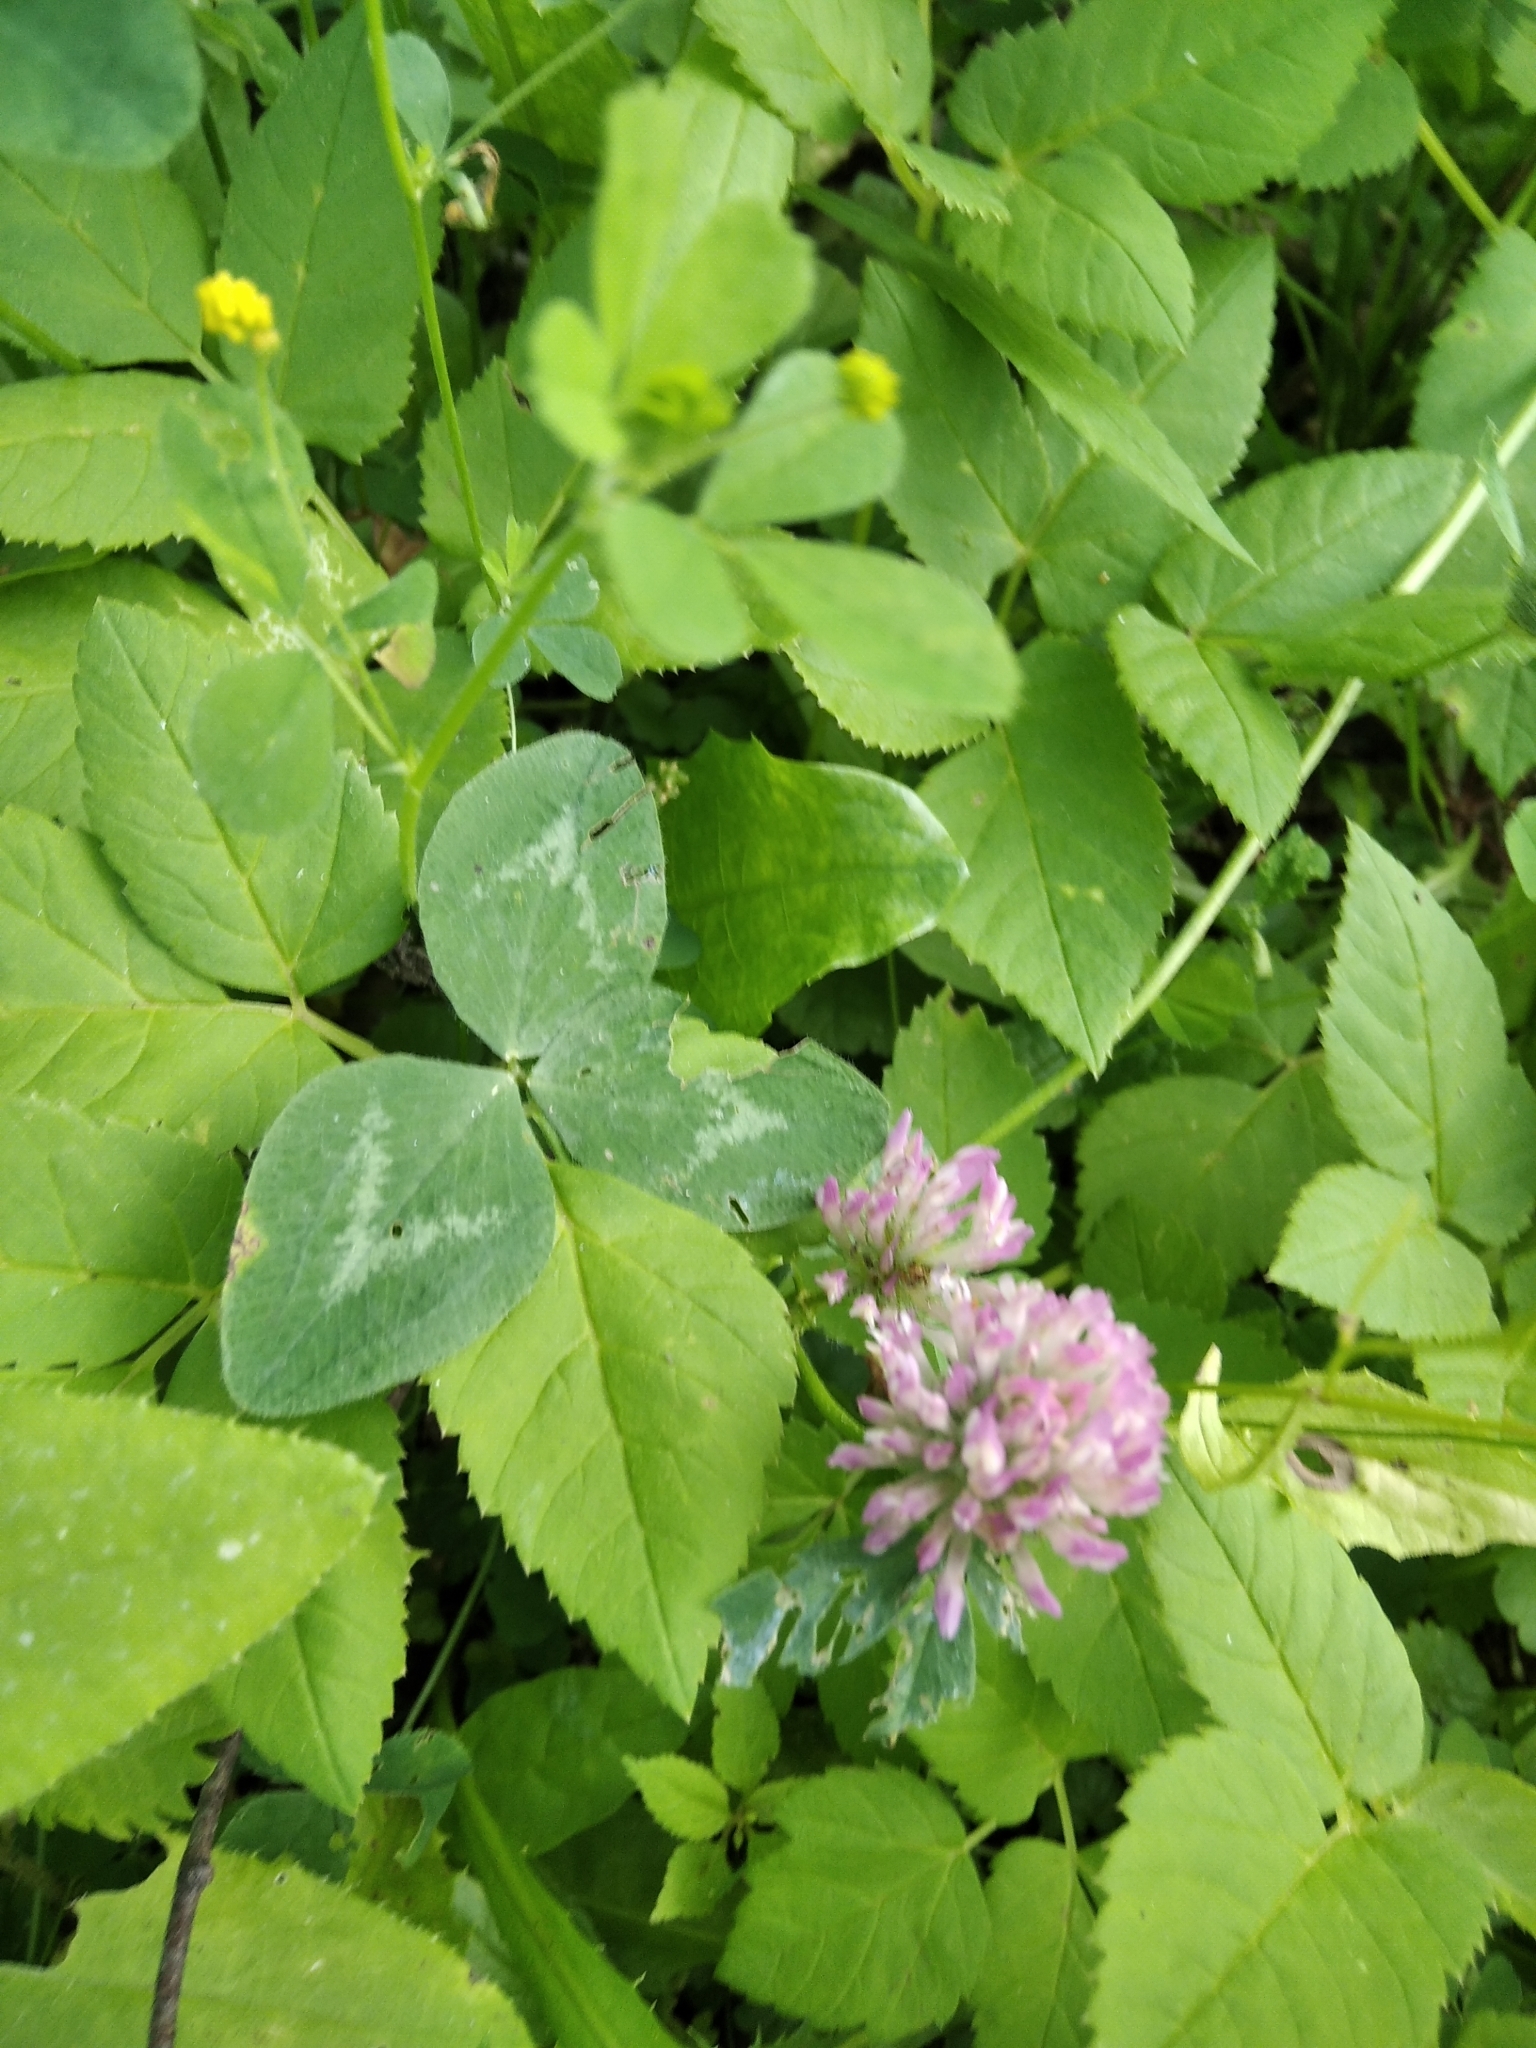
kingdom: Plantae
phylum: Tracheophyta
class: Magnoliopsida
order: Fabales
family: Fabaceae
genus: Trifolium
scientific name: Trifolium pratense
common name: Red clover
